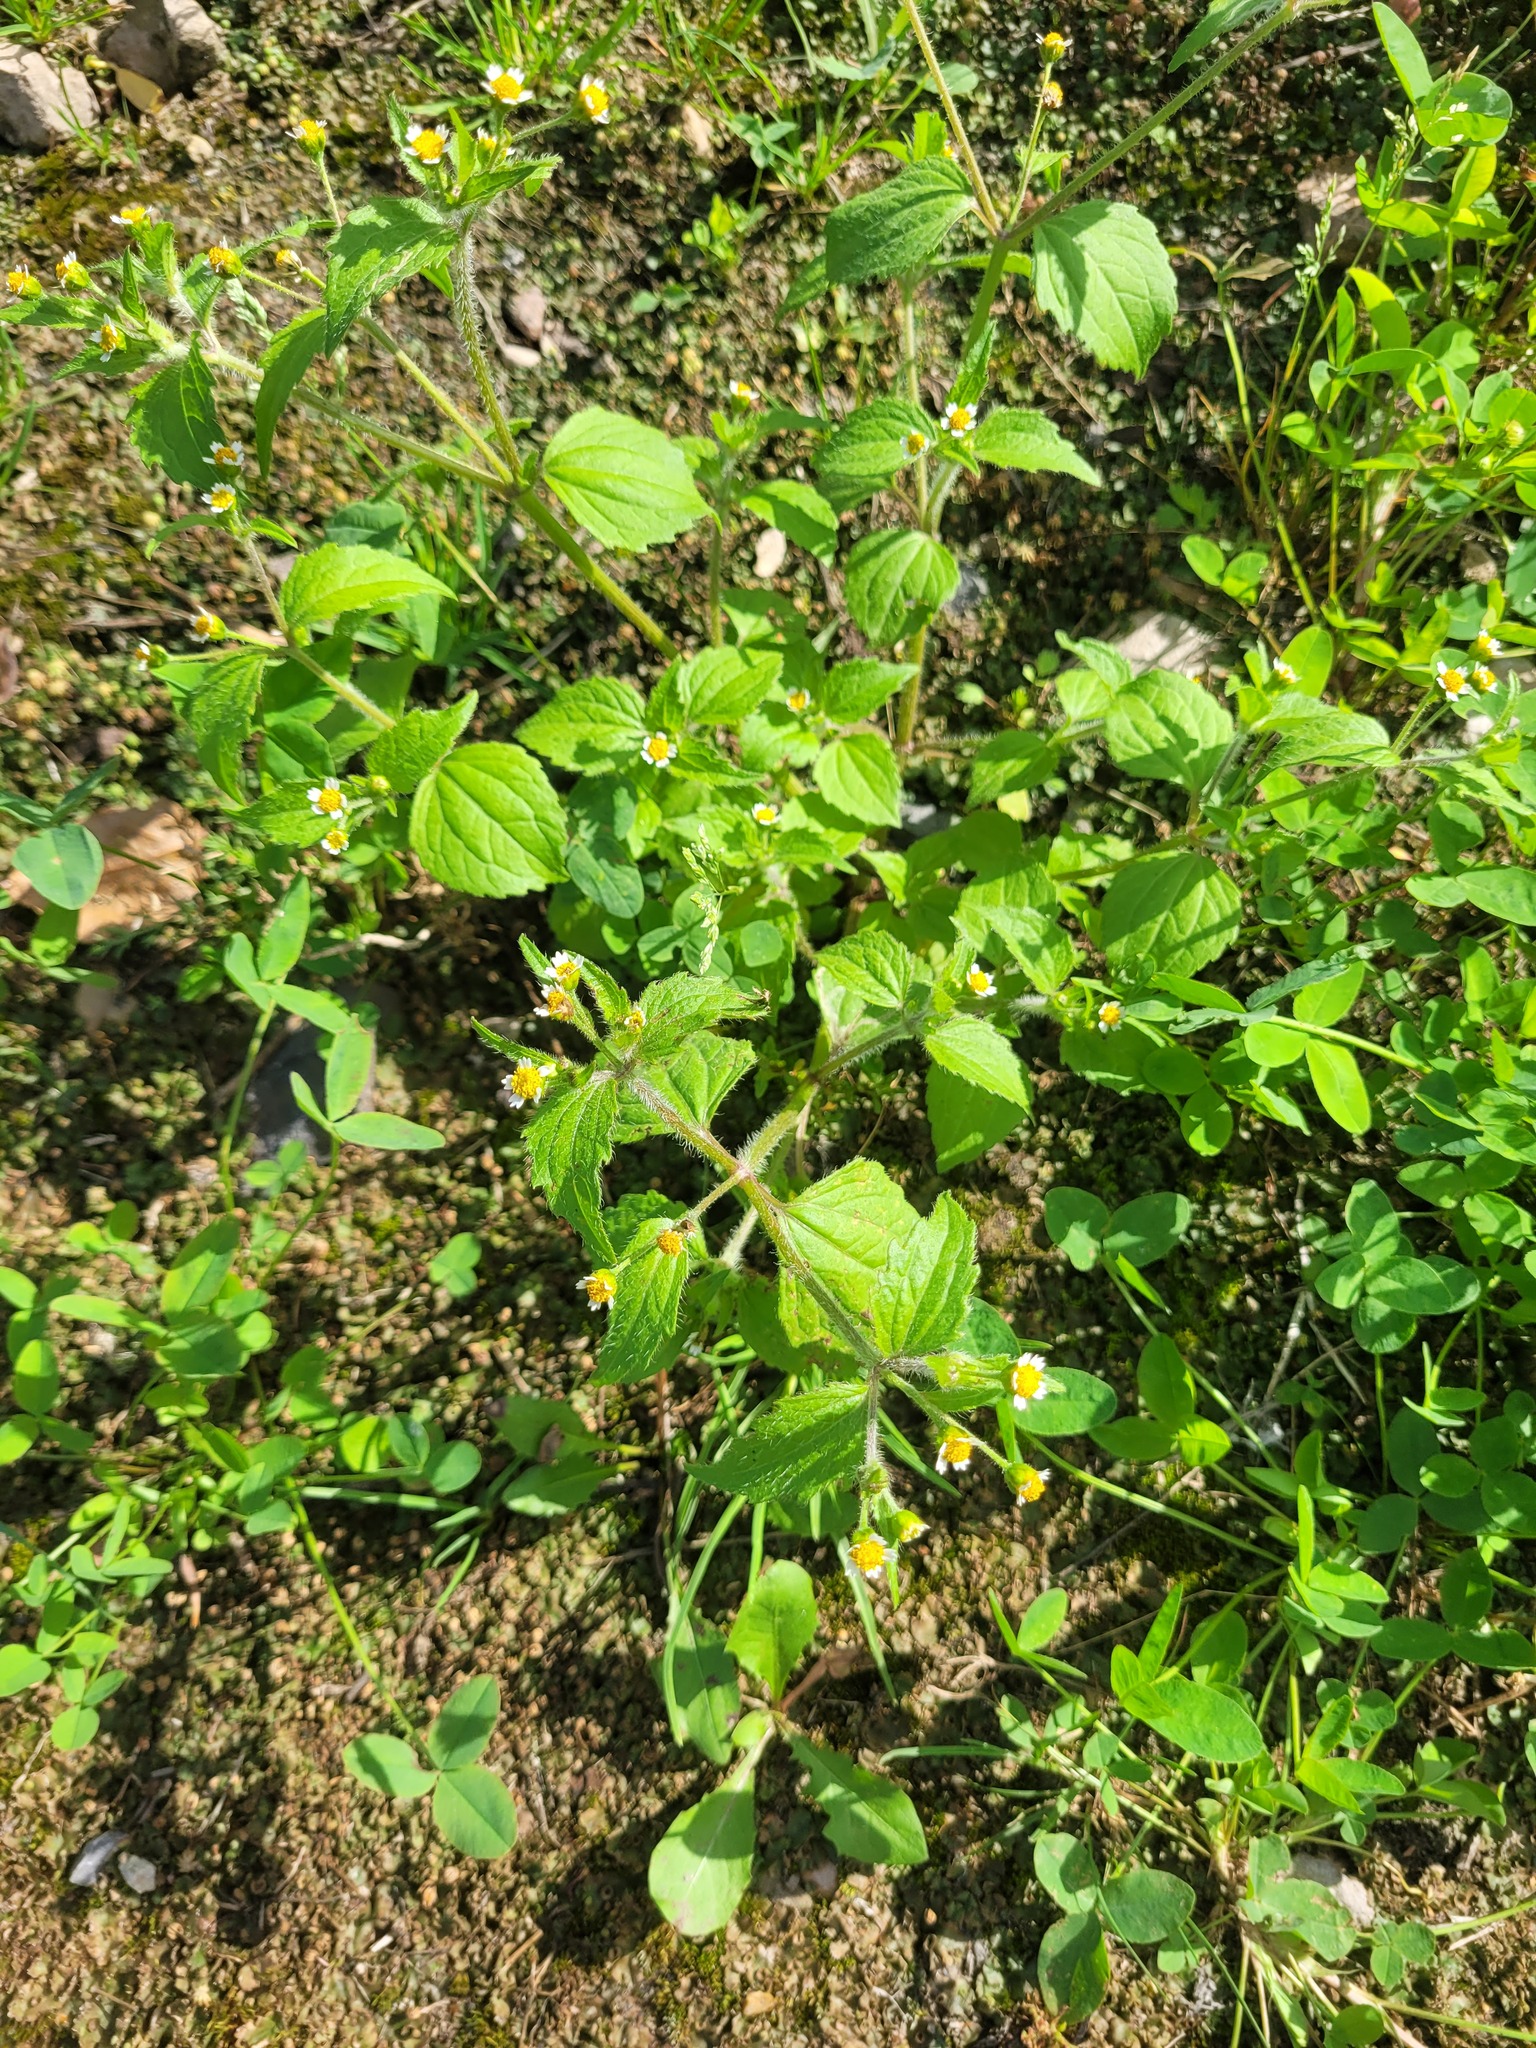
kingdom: Plantae
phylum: Tracheophyta
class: Magnoliopsida
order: Asterales
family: Asteraceae
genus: Galinsoga
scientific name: Galinsoga quadriradiata
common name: Shaggy soldier
